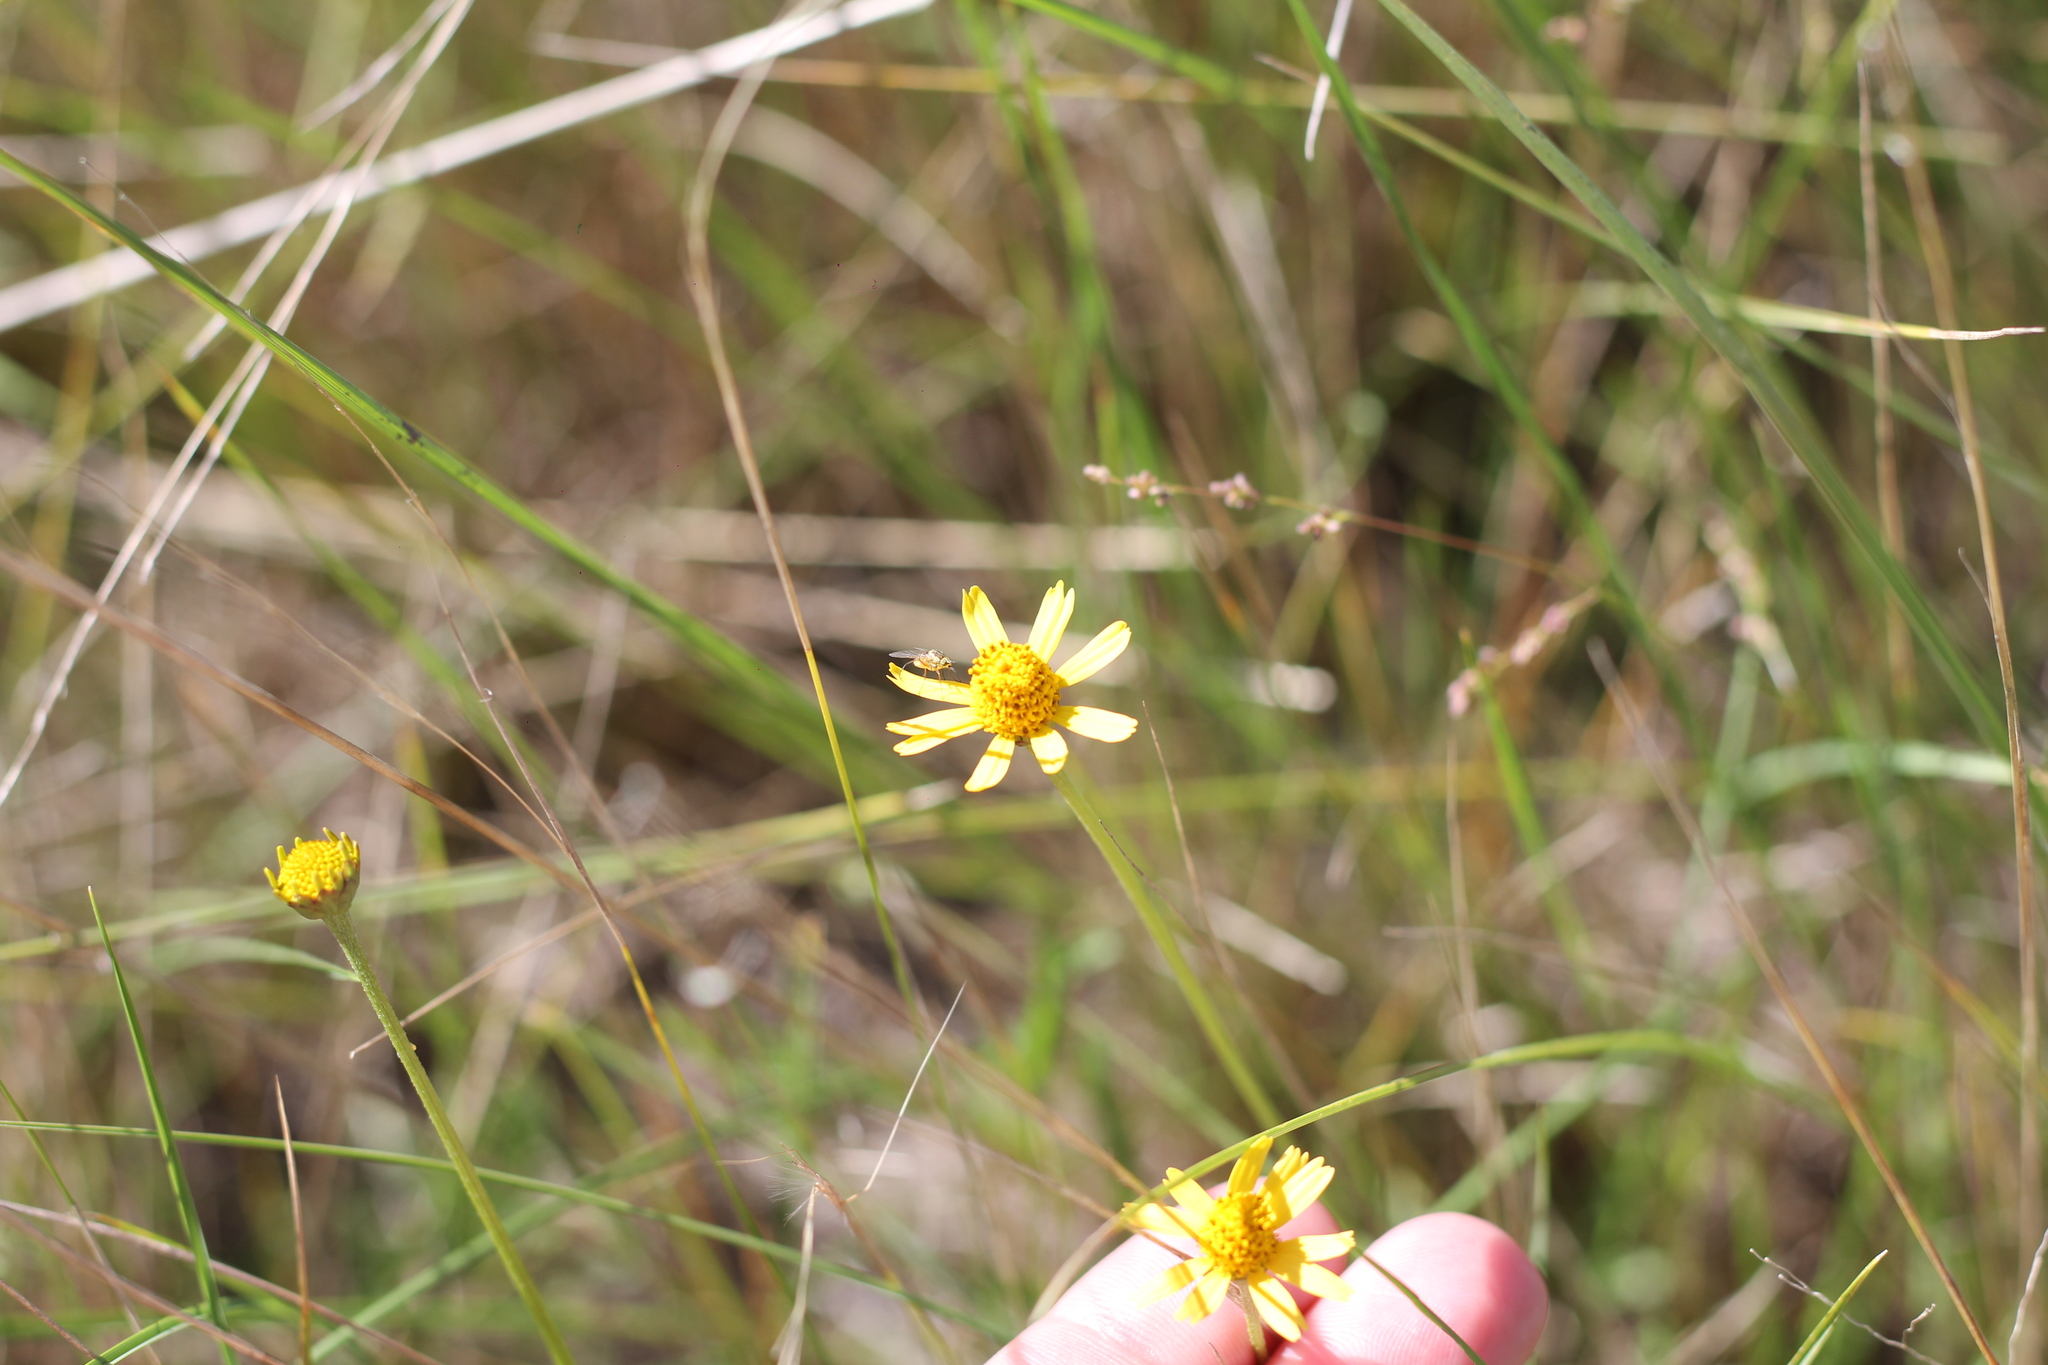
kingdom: Plantae
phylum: Tracheophyta
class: Magnoliopsida
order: Asterales
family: Asteraceae
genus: Acmella
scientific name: Acmella decumbens
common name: Creeping spotflower
